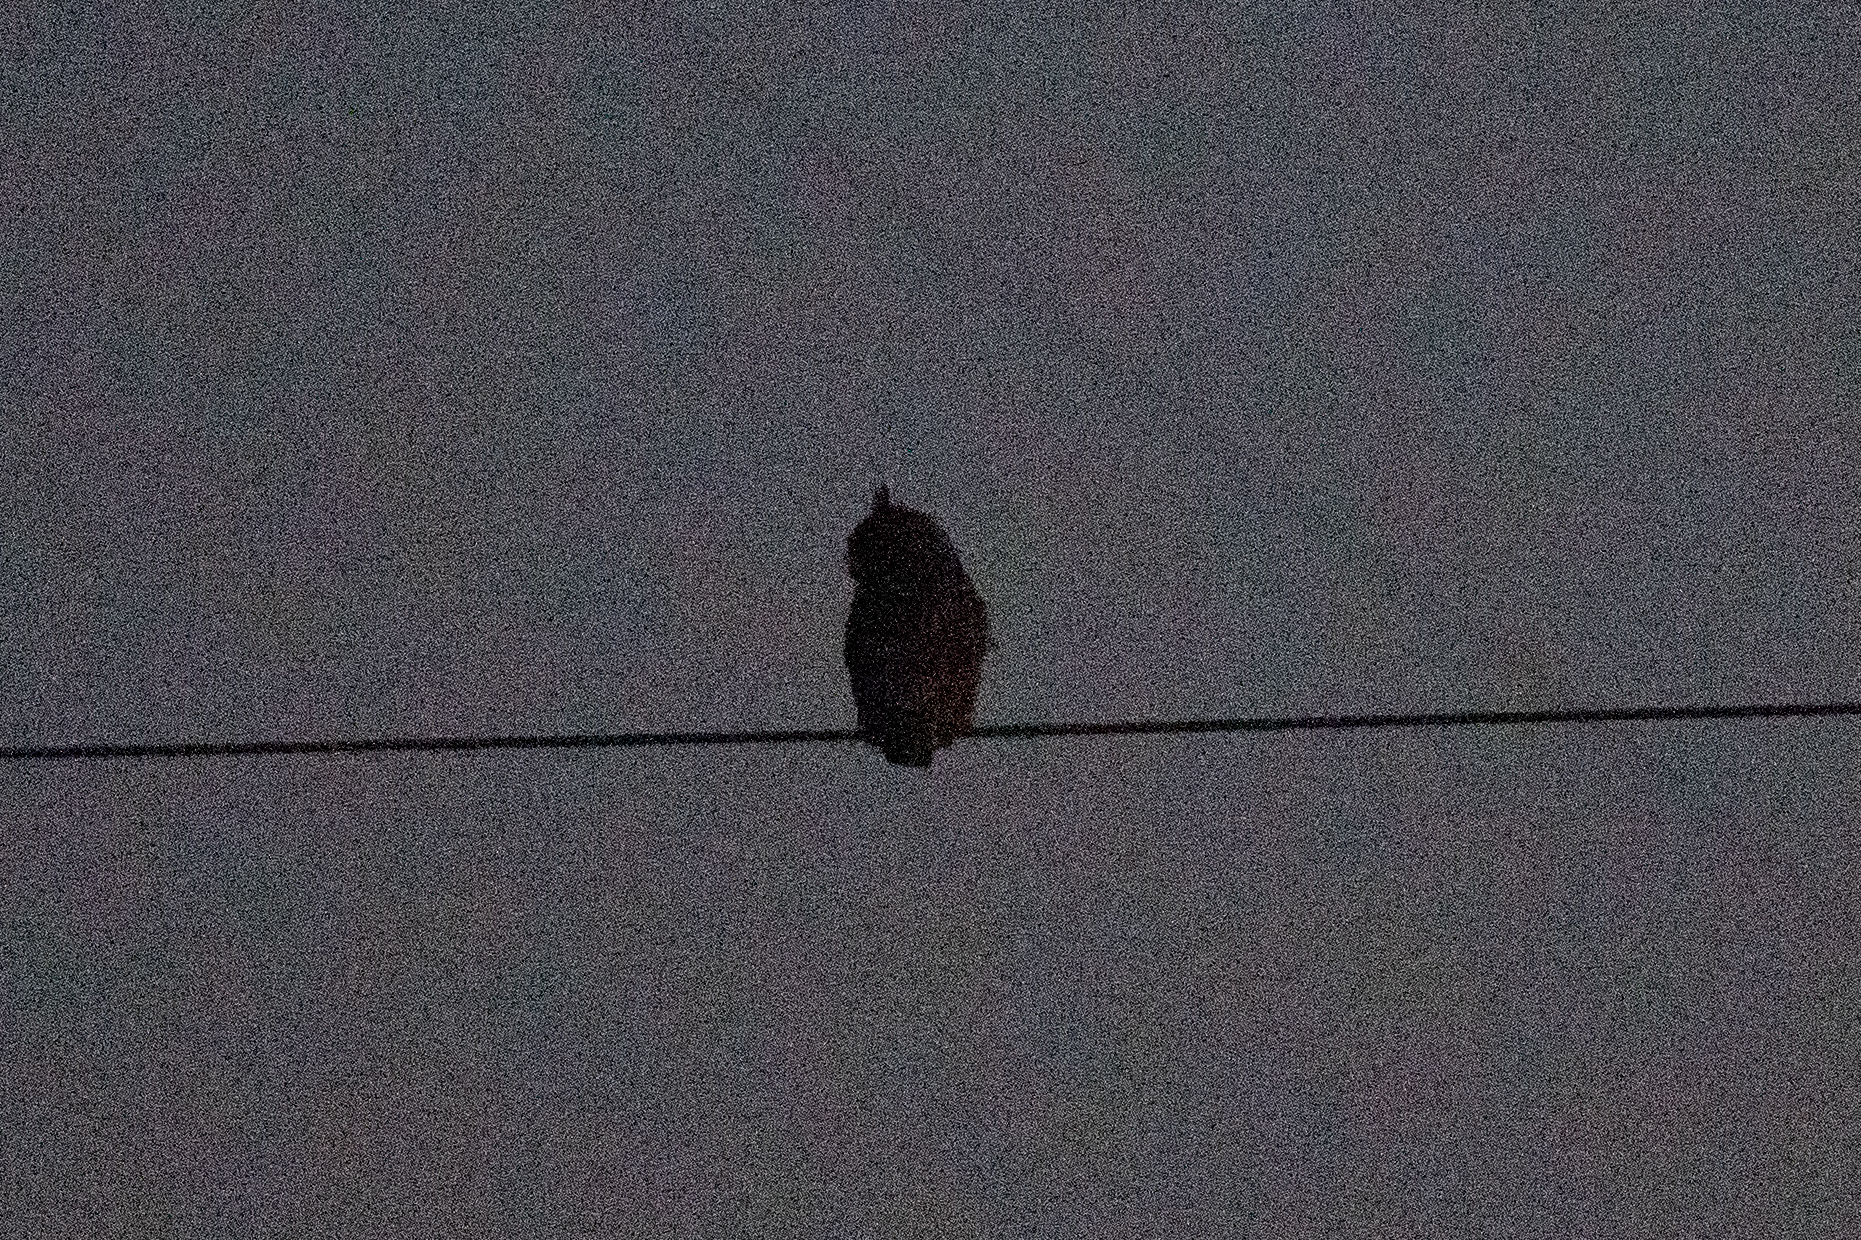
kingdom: Animalia
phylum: Chordata
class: Aves
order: Strigiformes
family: Strigidae
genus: Bubo
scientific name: Bubo virginianus
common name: Great horned owl
